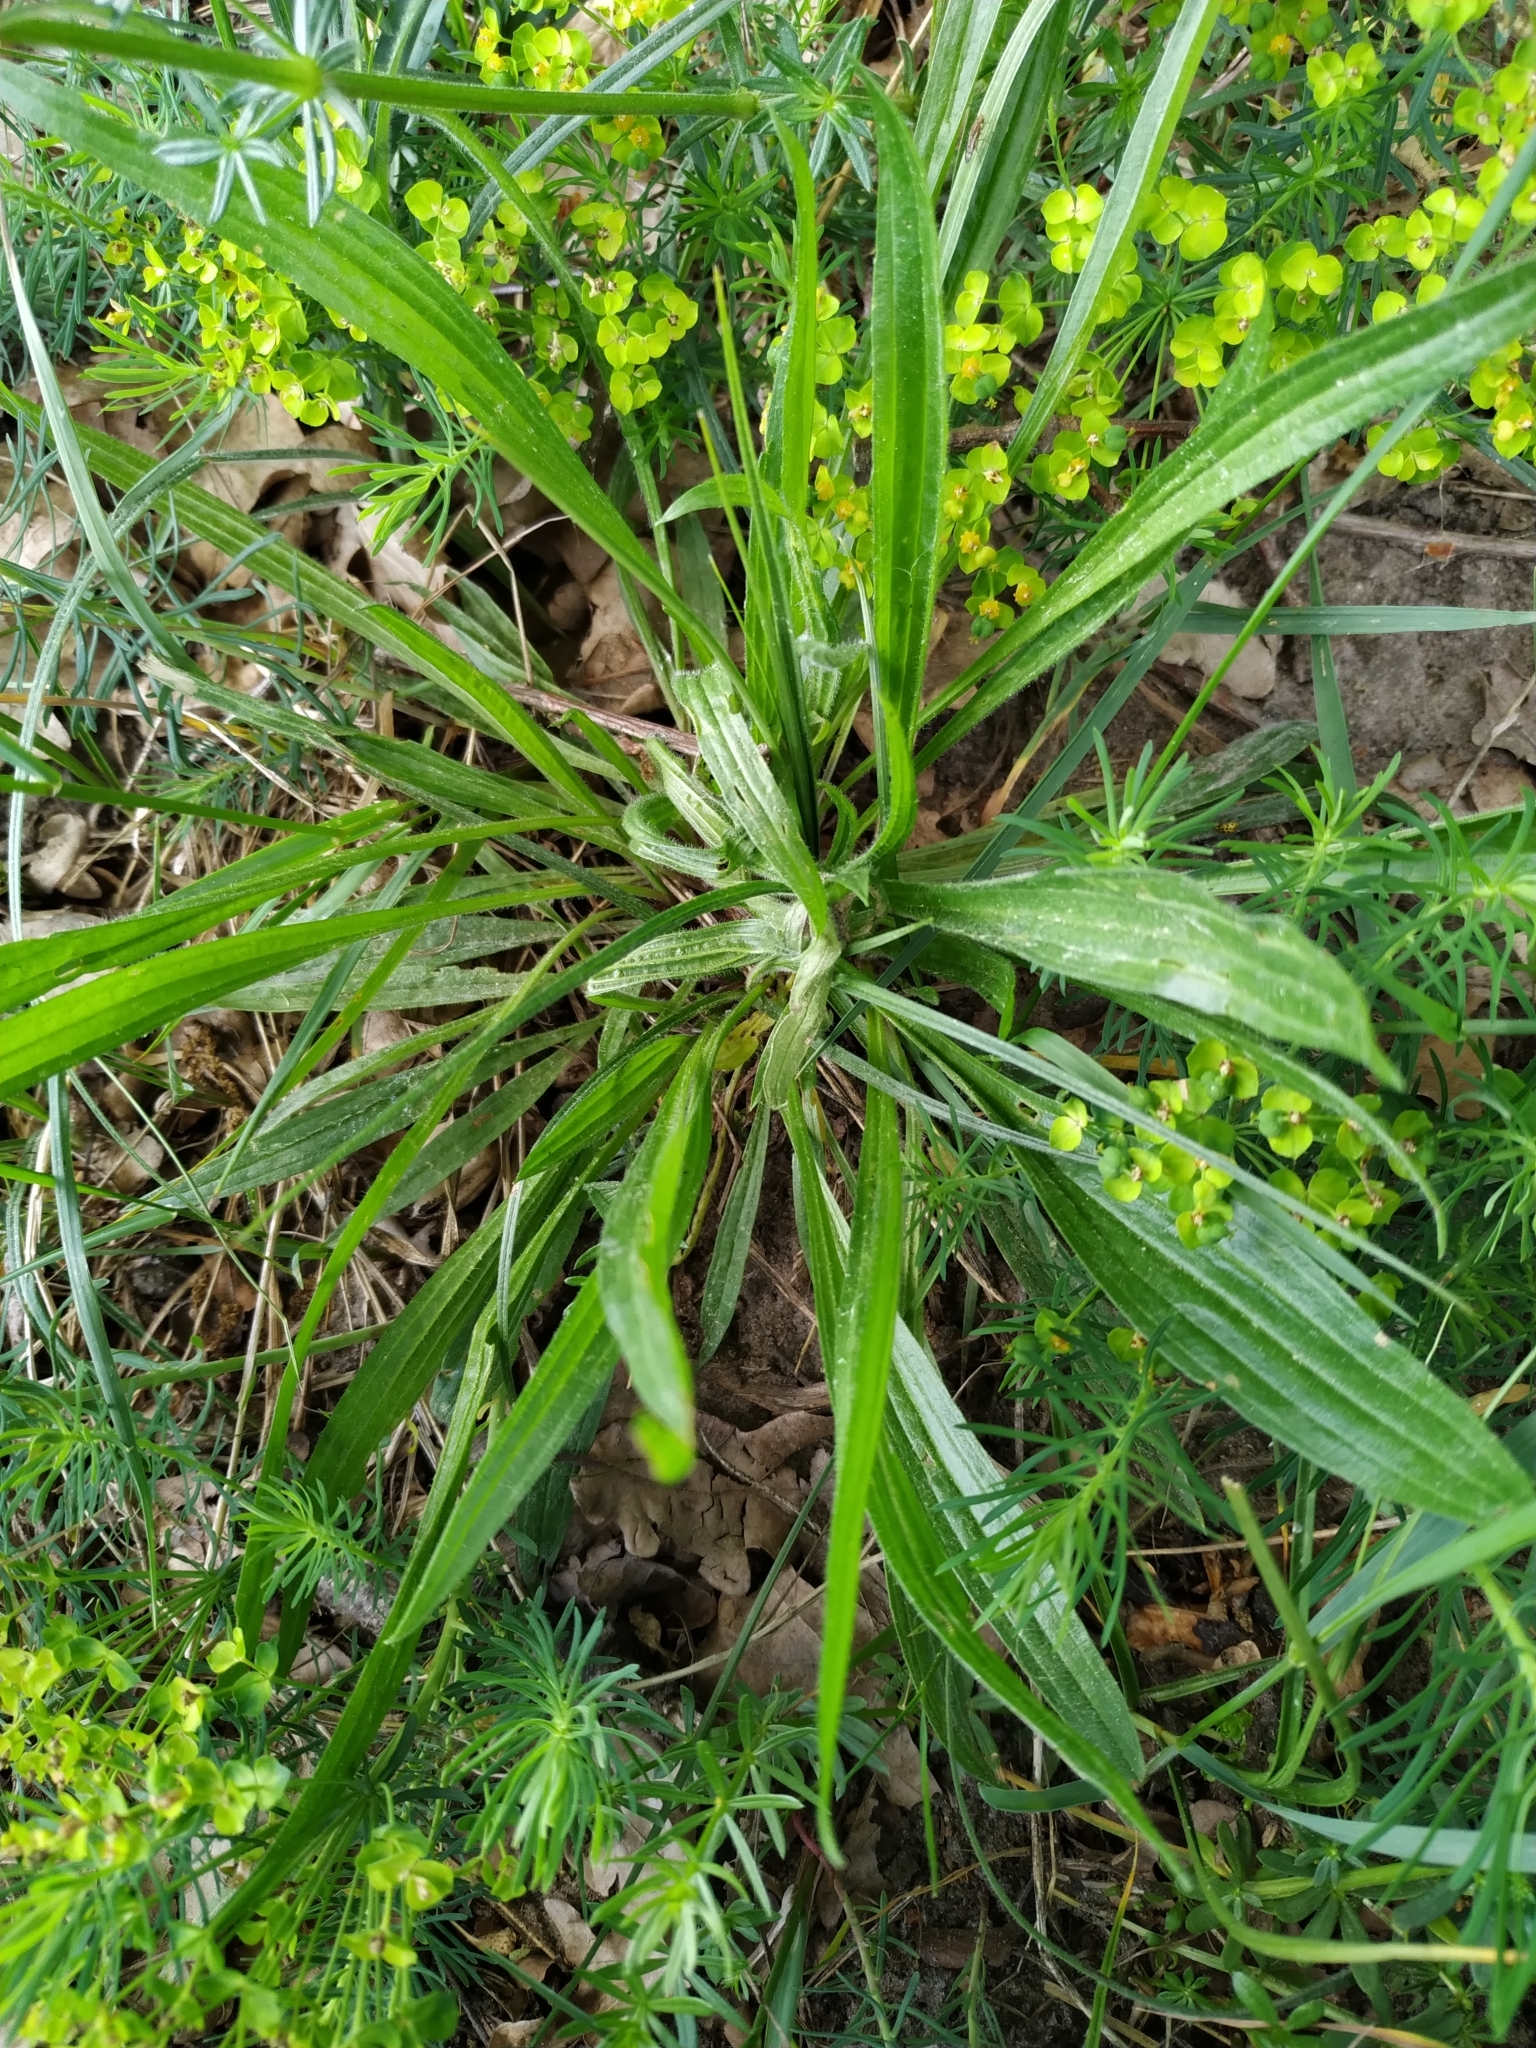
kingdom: Plantae
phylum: Tracheophyta
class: Magnoliopsida
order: Lamiales
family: Plantaginaceae
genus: Plantago
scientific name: Plantago lanceolata
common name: Ribwort plantain
